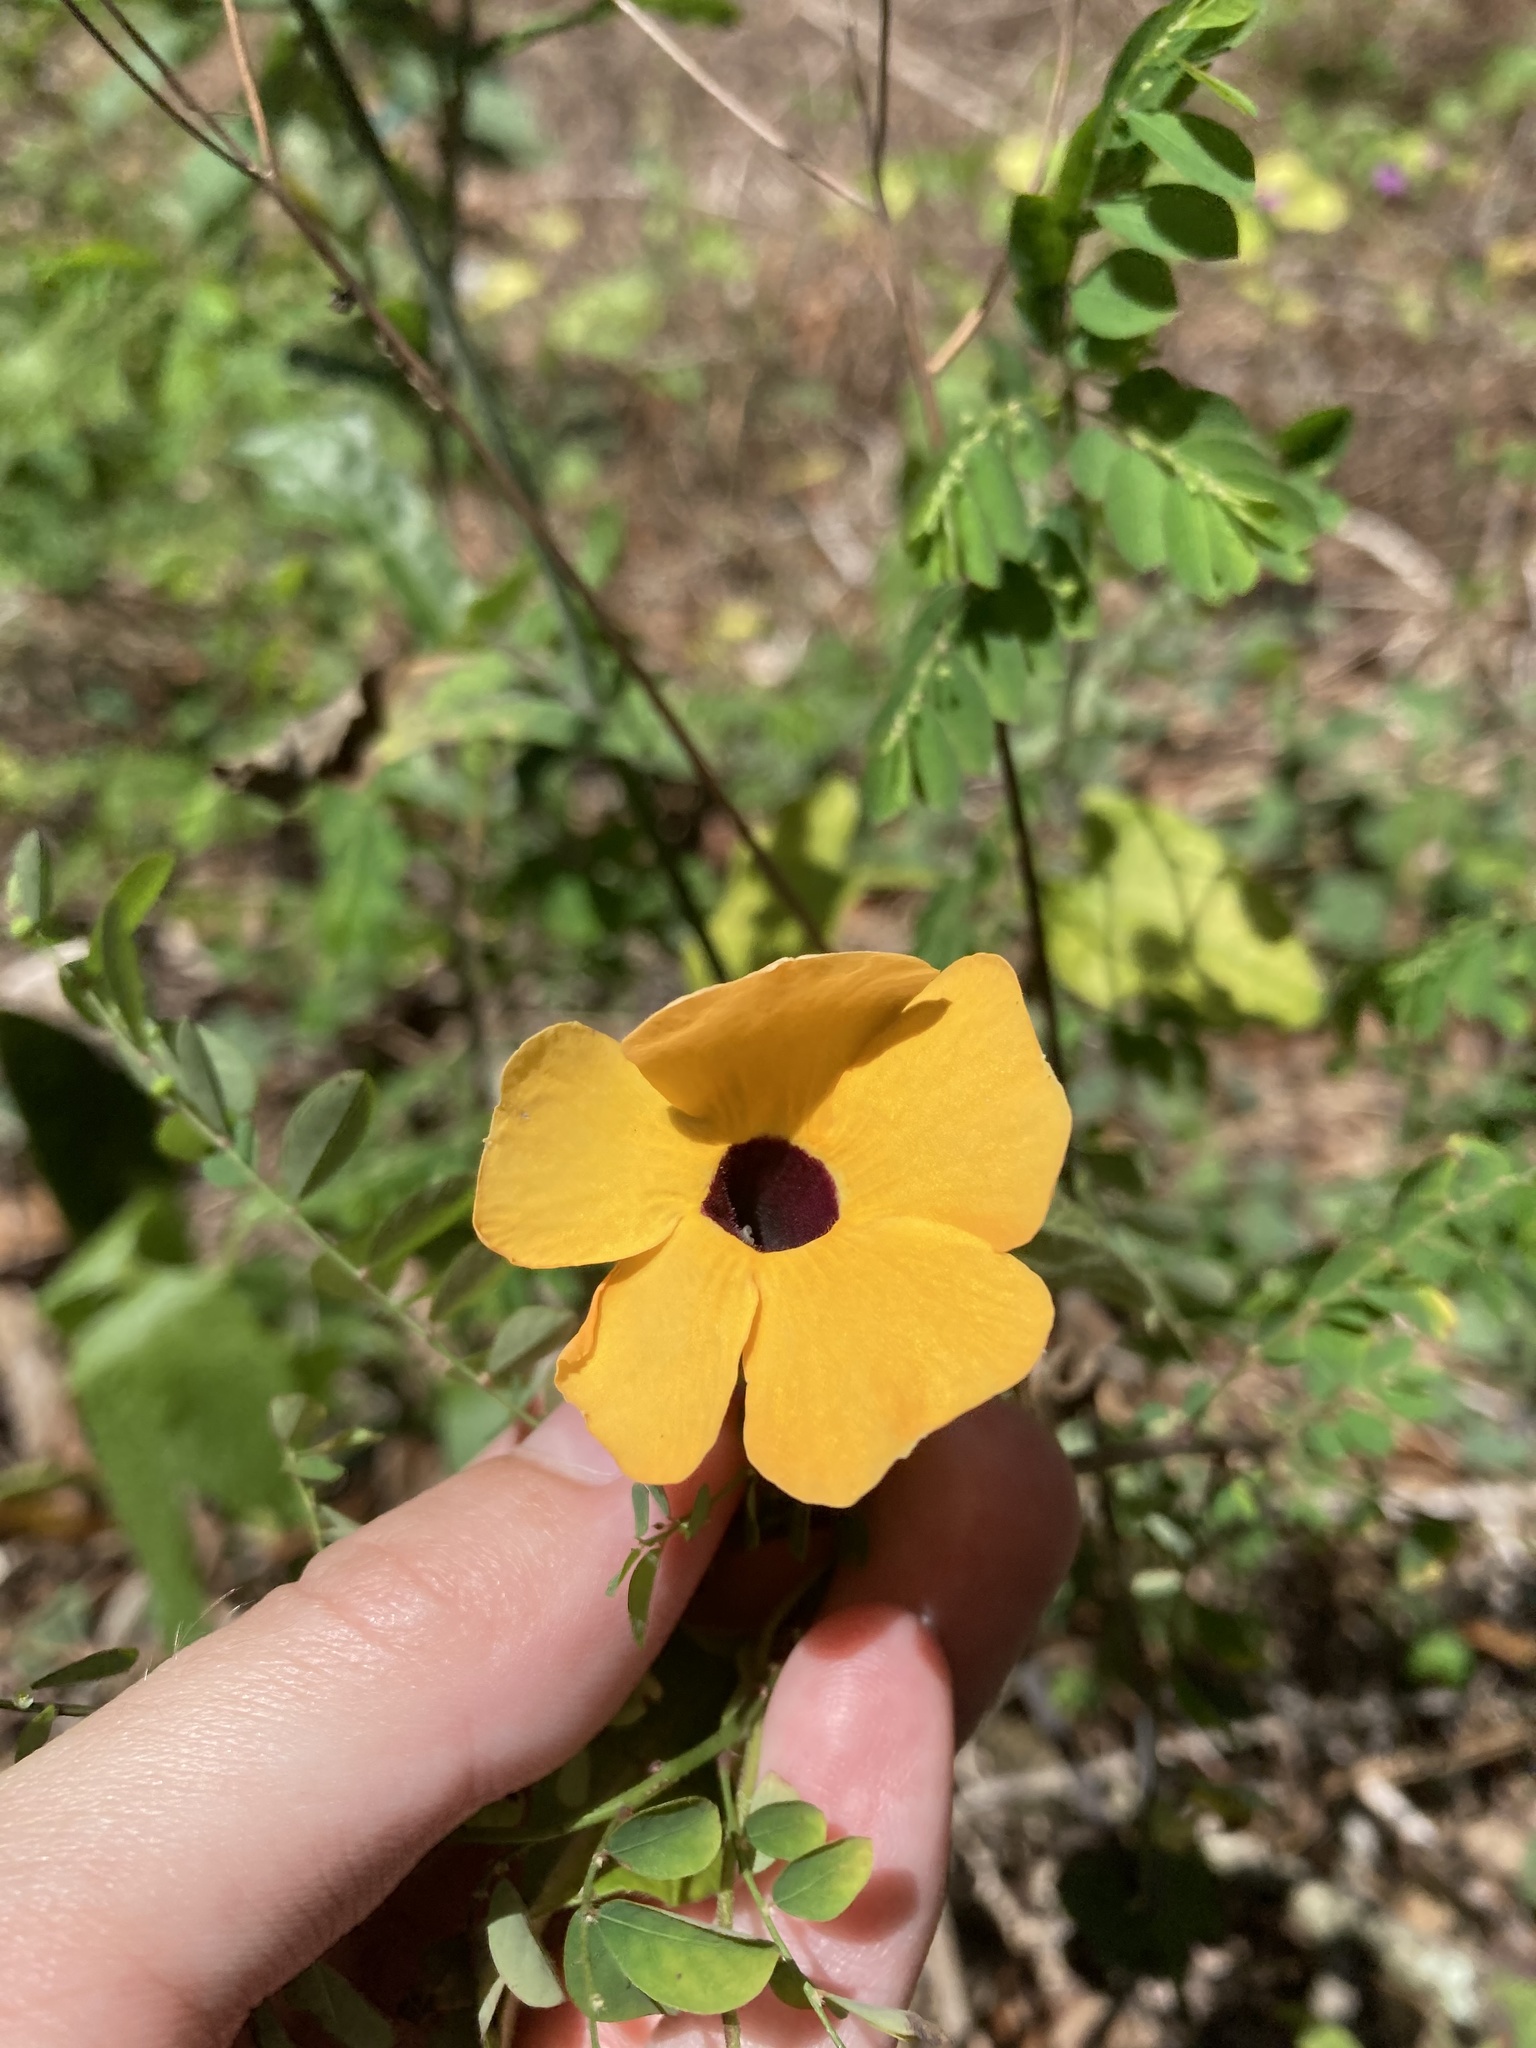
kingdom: Plantae
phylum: Tracheophyta
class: Magnoliopsida
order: Lamiales
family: Acanthaceae
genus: Thunbergia
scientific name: Thunbergia alata
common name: Blackeyed susan vine
